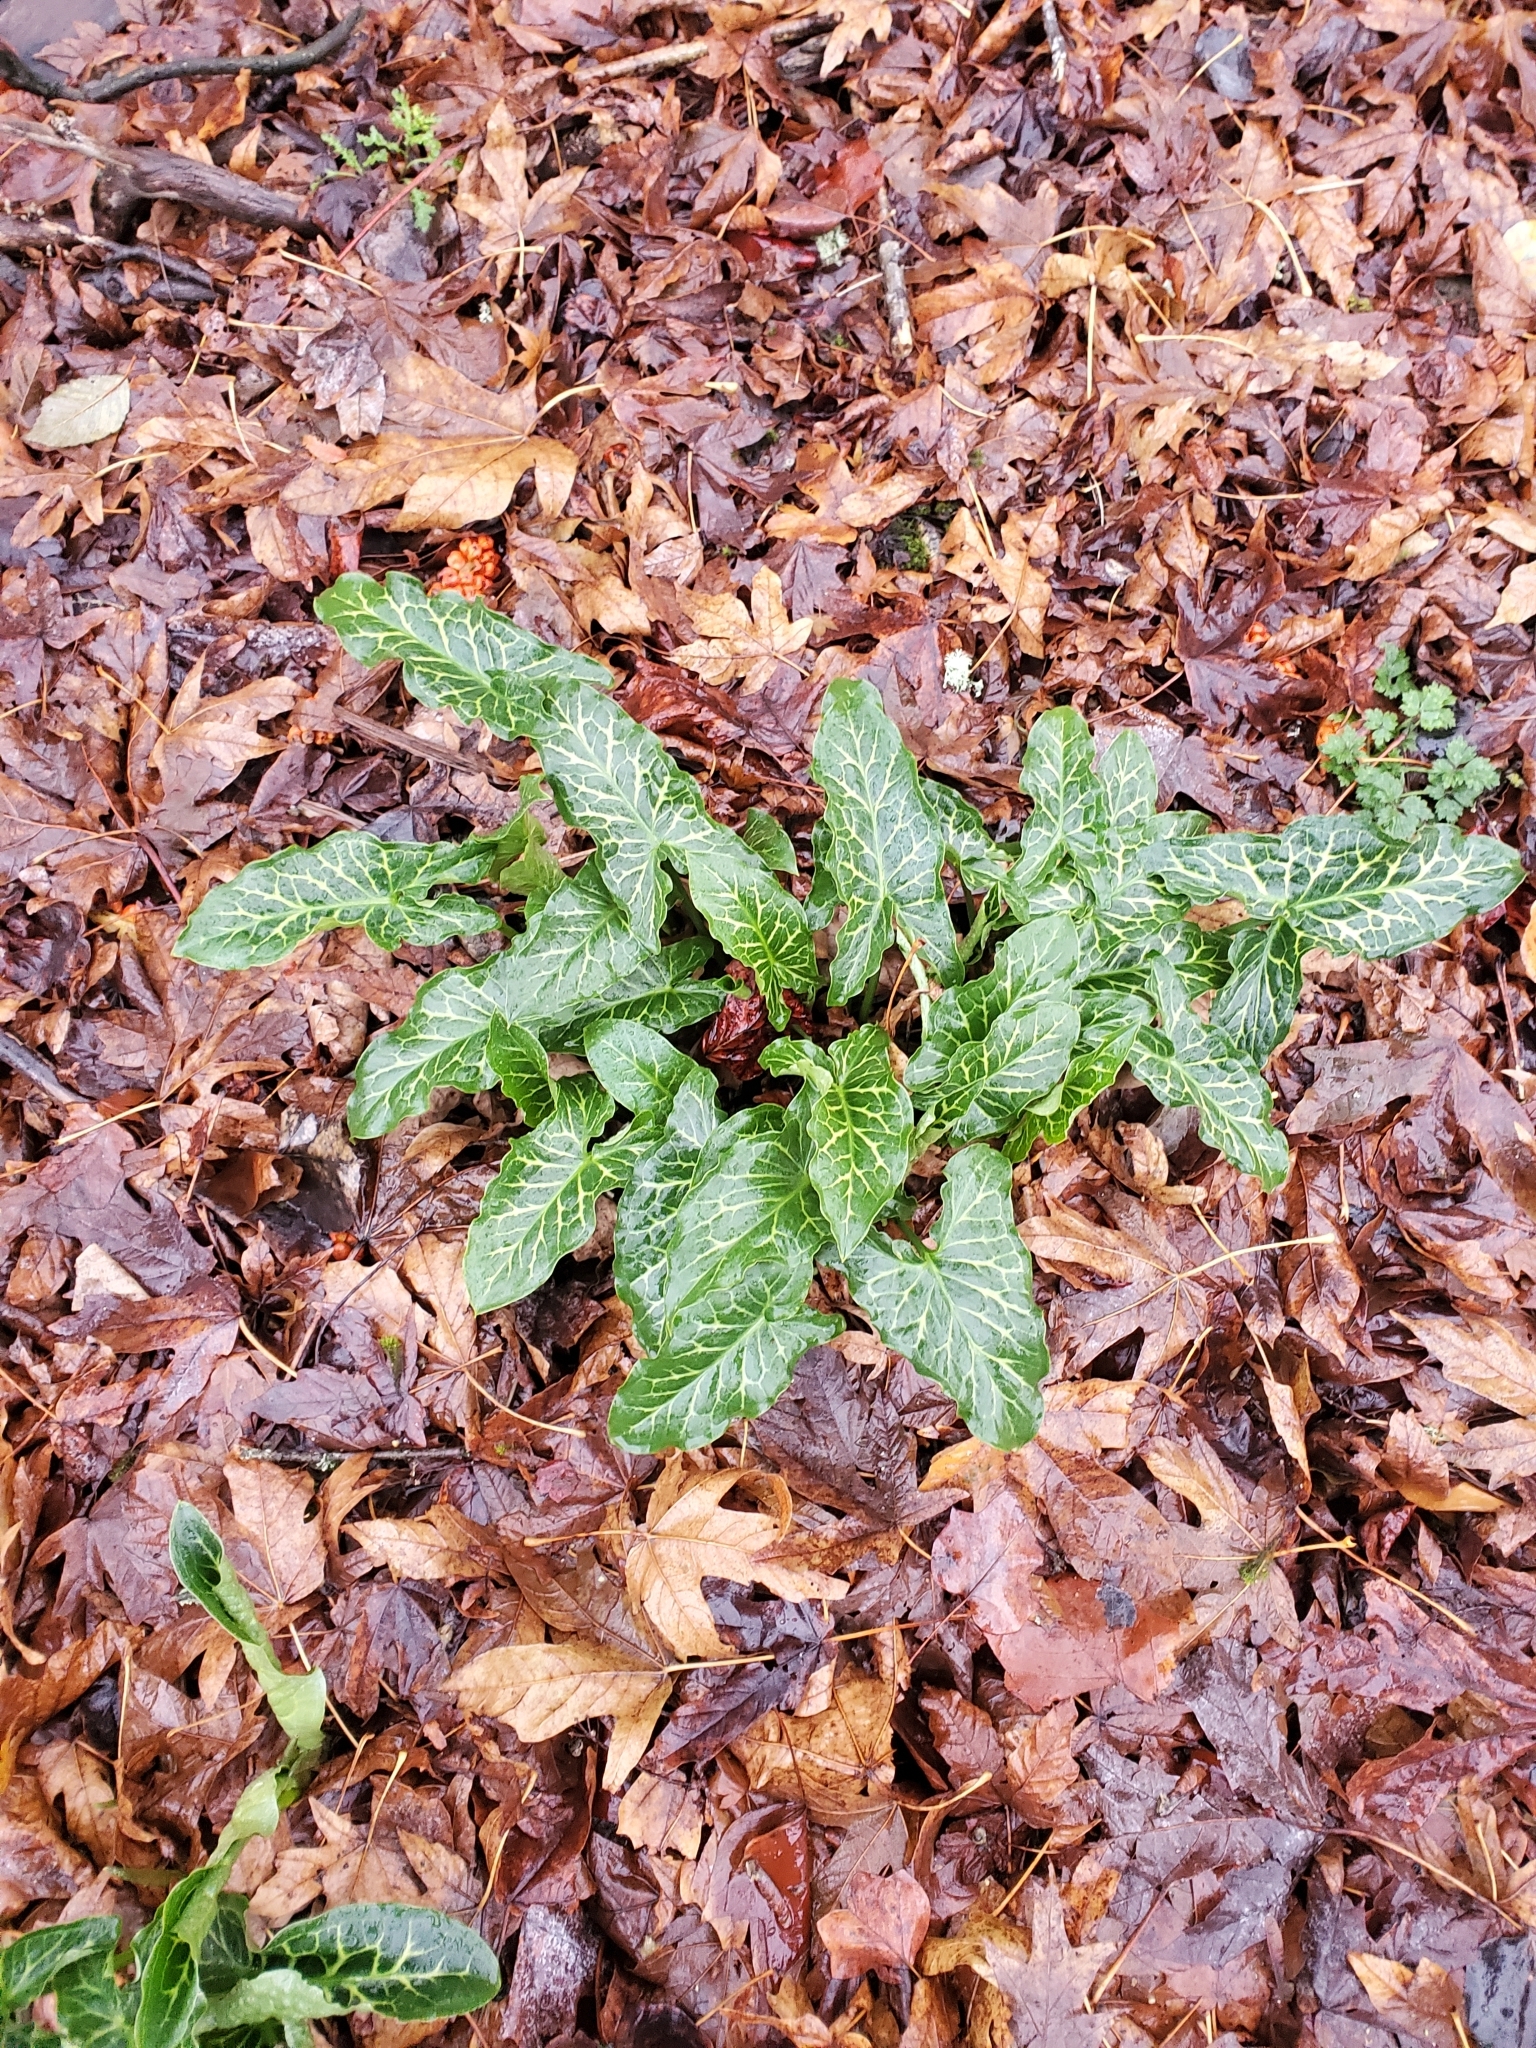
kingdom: Plantae
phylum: Tracheophyta
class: Liliopsida
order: Alismatales
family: Araceae
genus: Arum
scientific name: Arum italicum
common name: Italian lords-and-ladies
